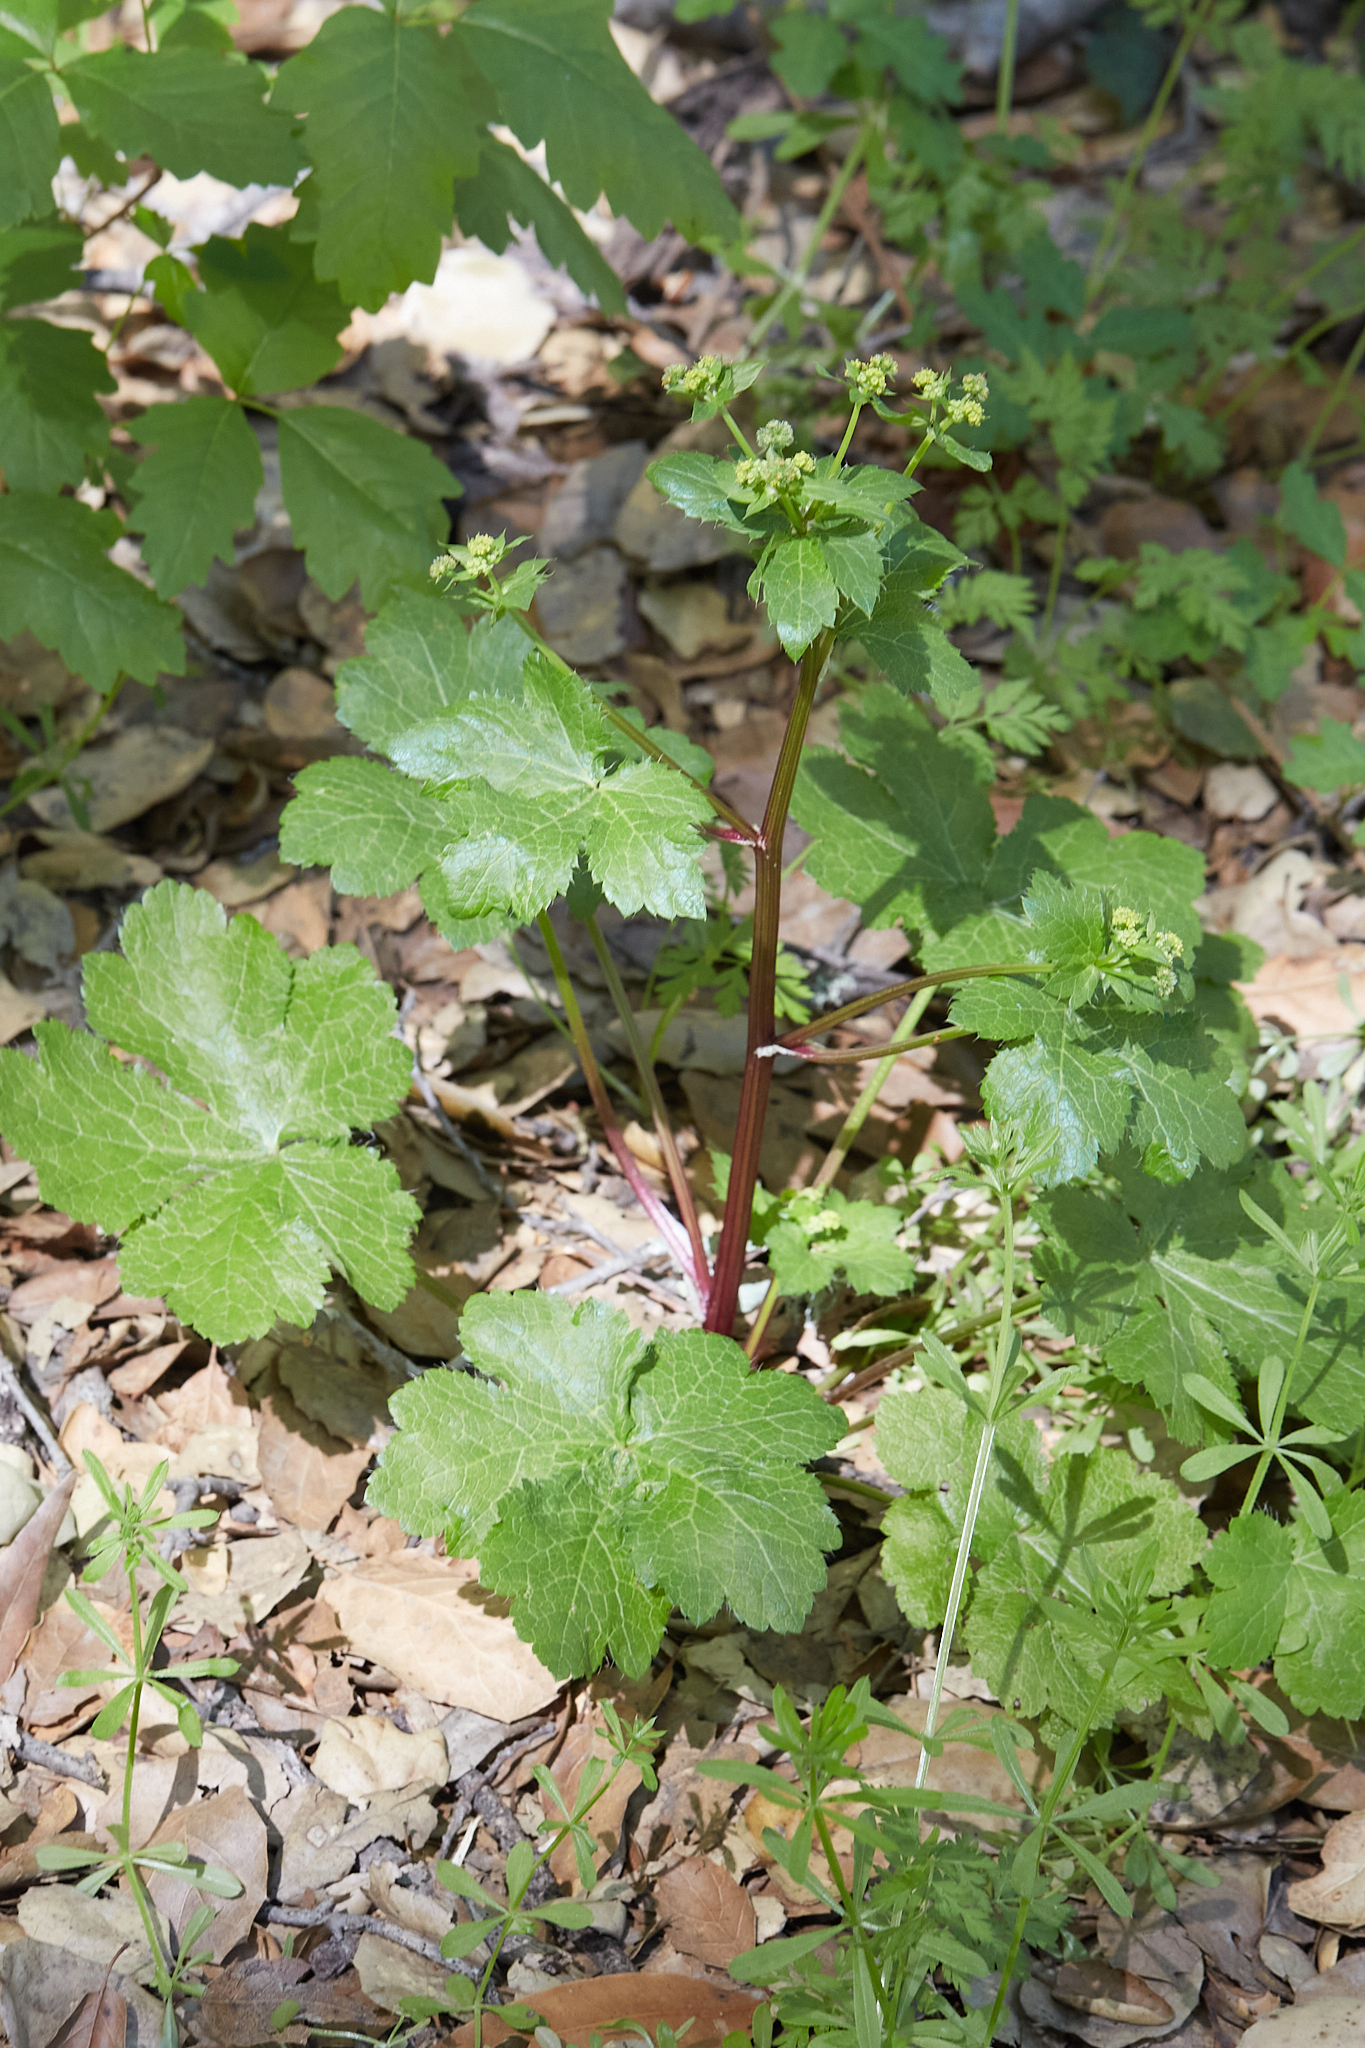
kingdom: Plantae
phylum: Tracheophyta
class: Magnoliopsida
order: Apiales
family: Apiaceae
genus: Sanicula
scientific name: Sanicula crassicaulis
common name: Western snakeroot
